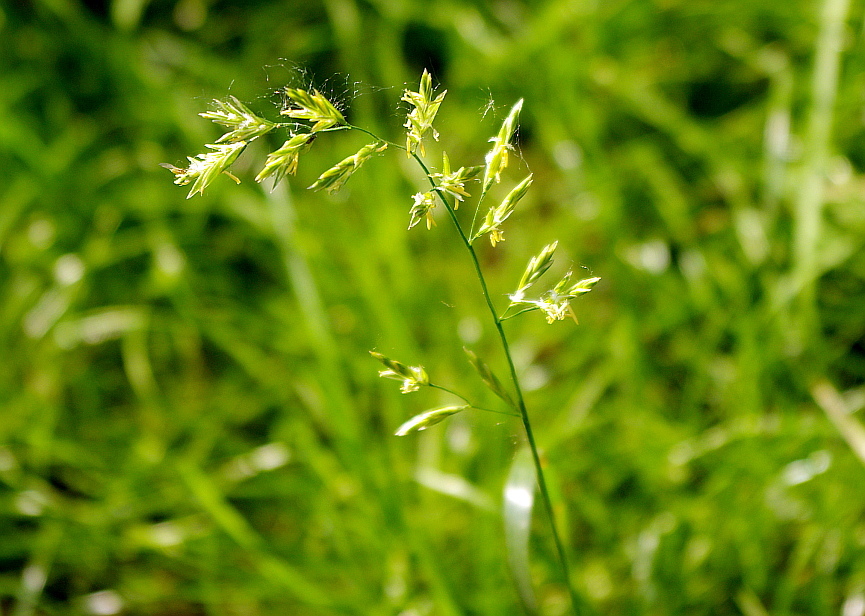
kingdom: Plantae
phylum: Tracheophyta
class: Liliopsida
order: Poales
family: Poaceae
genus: Lolium
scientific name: Lolium pratense
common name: Dover grass
